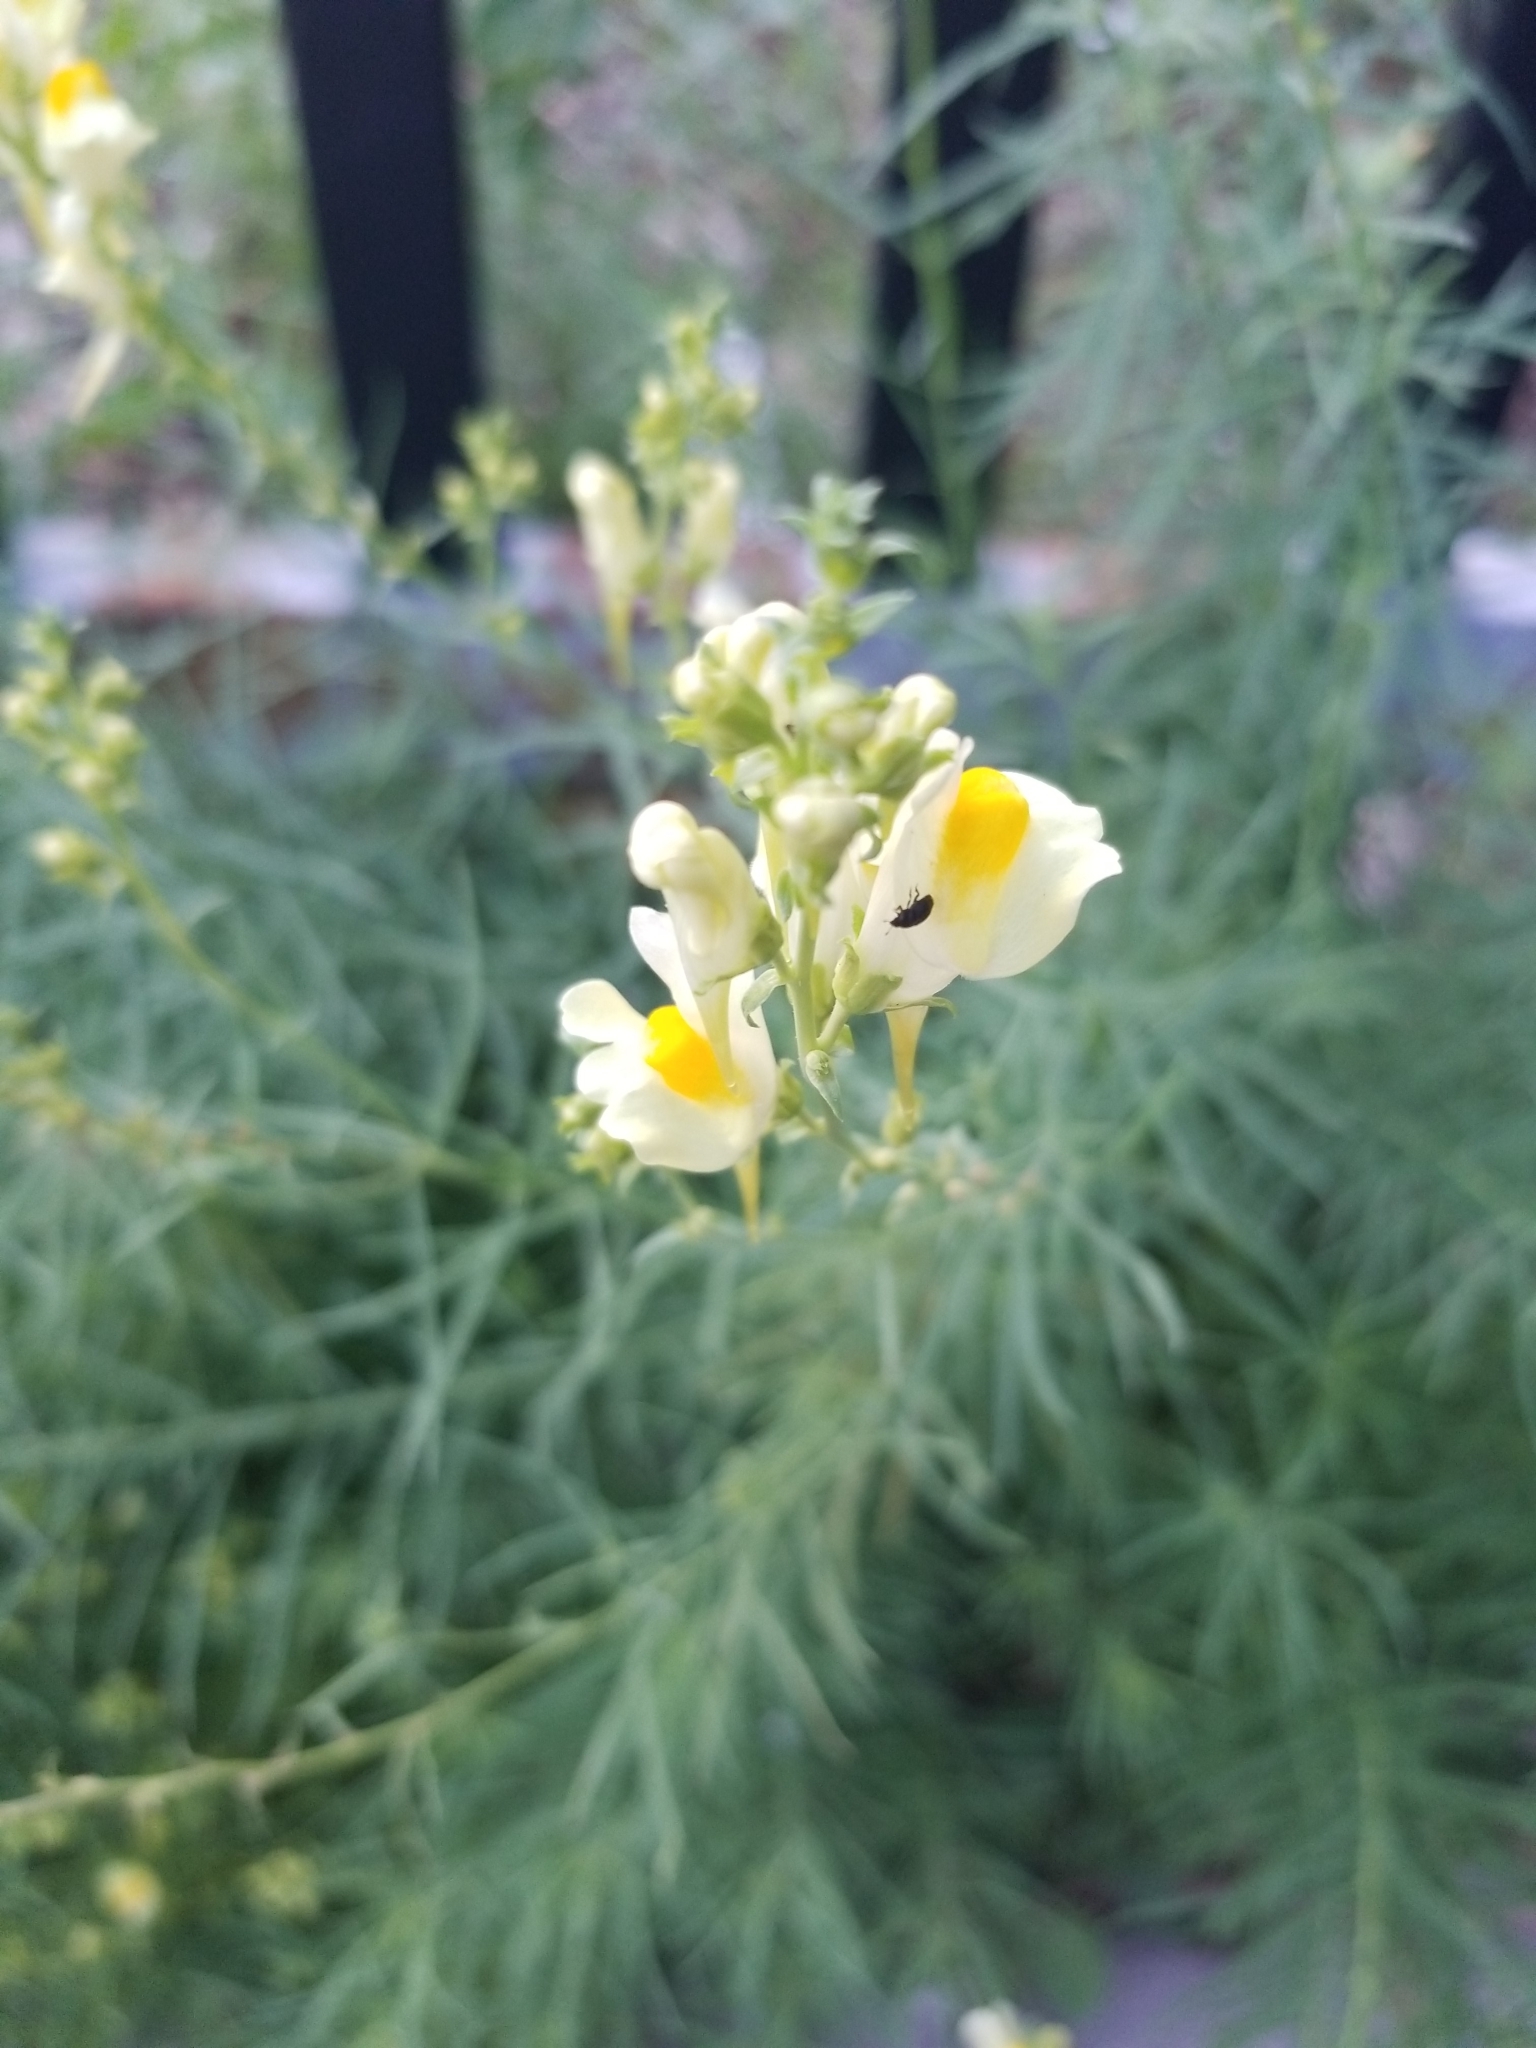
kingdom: Plantae
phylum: Tracheophyta
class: Magnoliopsida
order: Lamiales
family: Plantaginaceae
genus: Linaria
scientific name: Linaria vulgaris
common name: Butter and eggs
